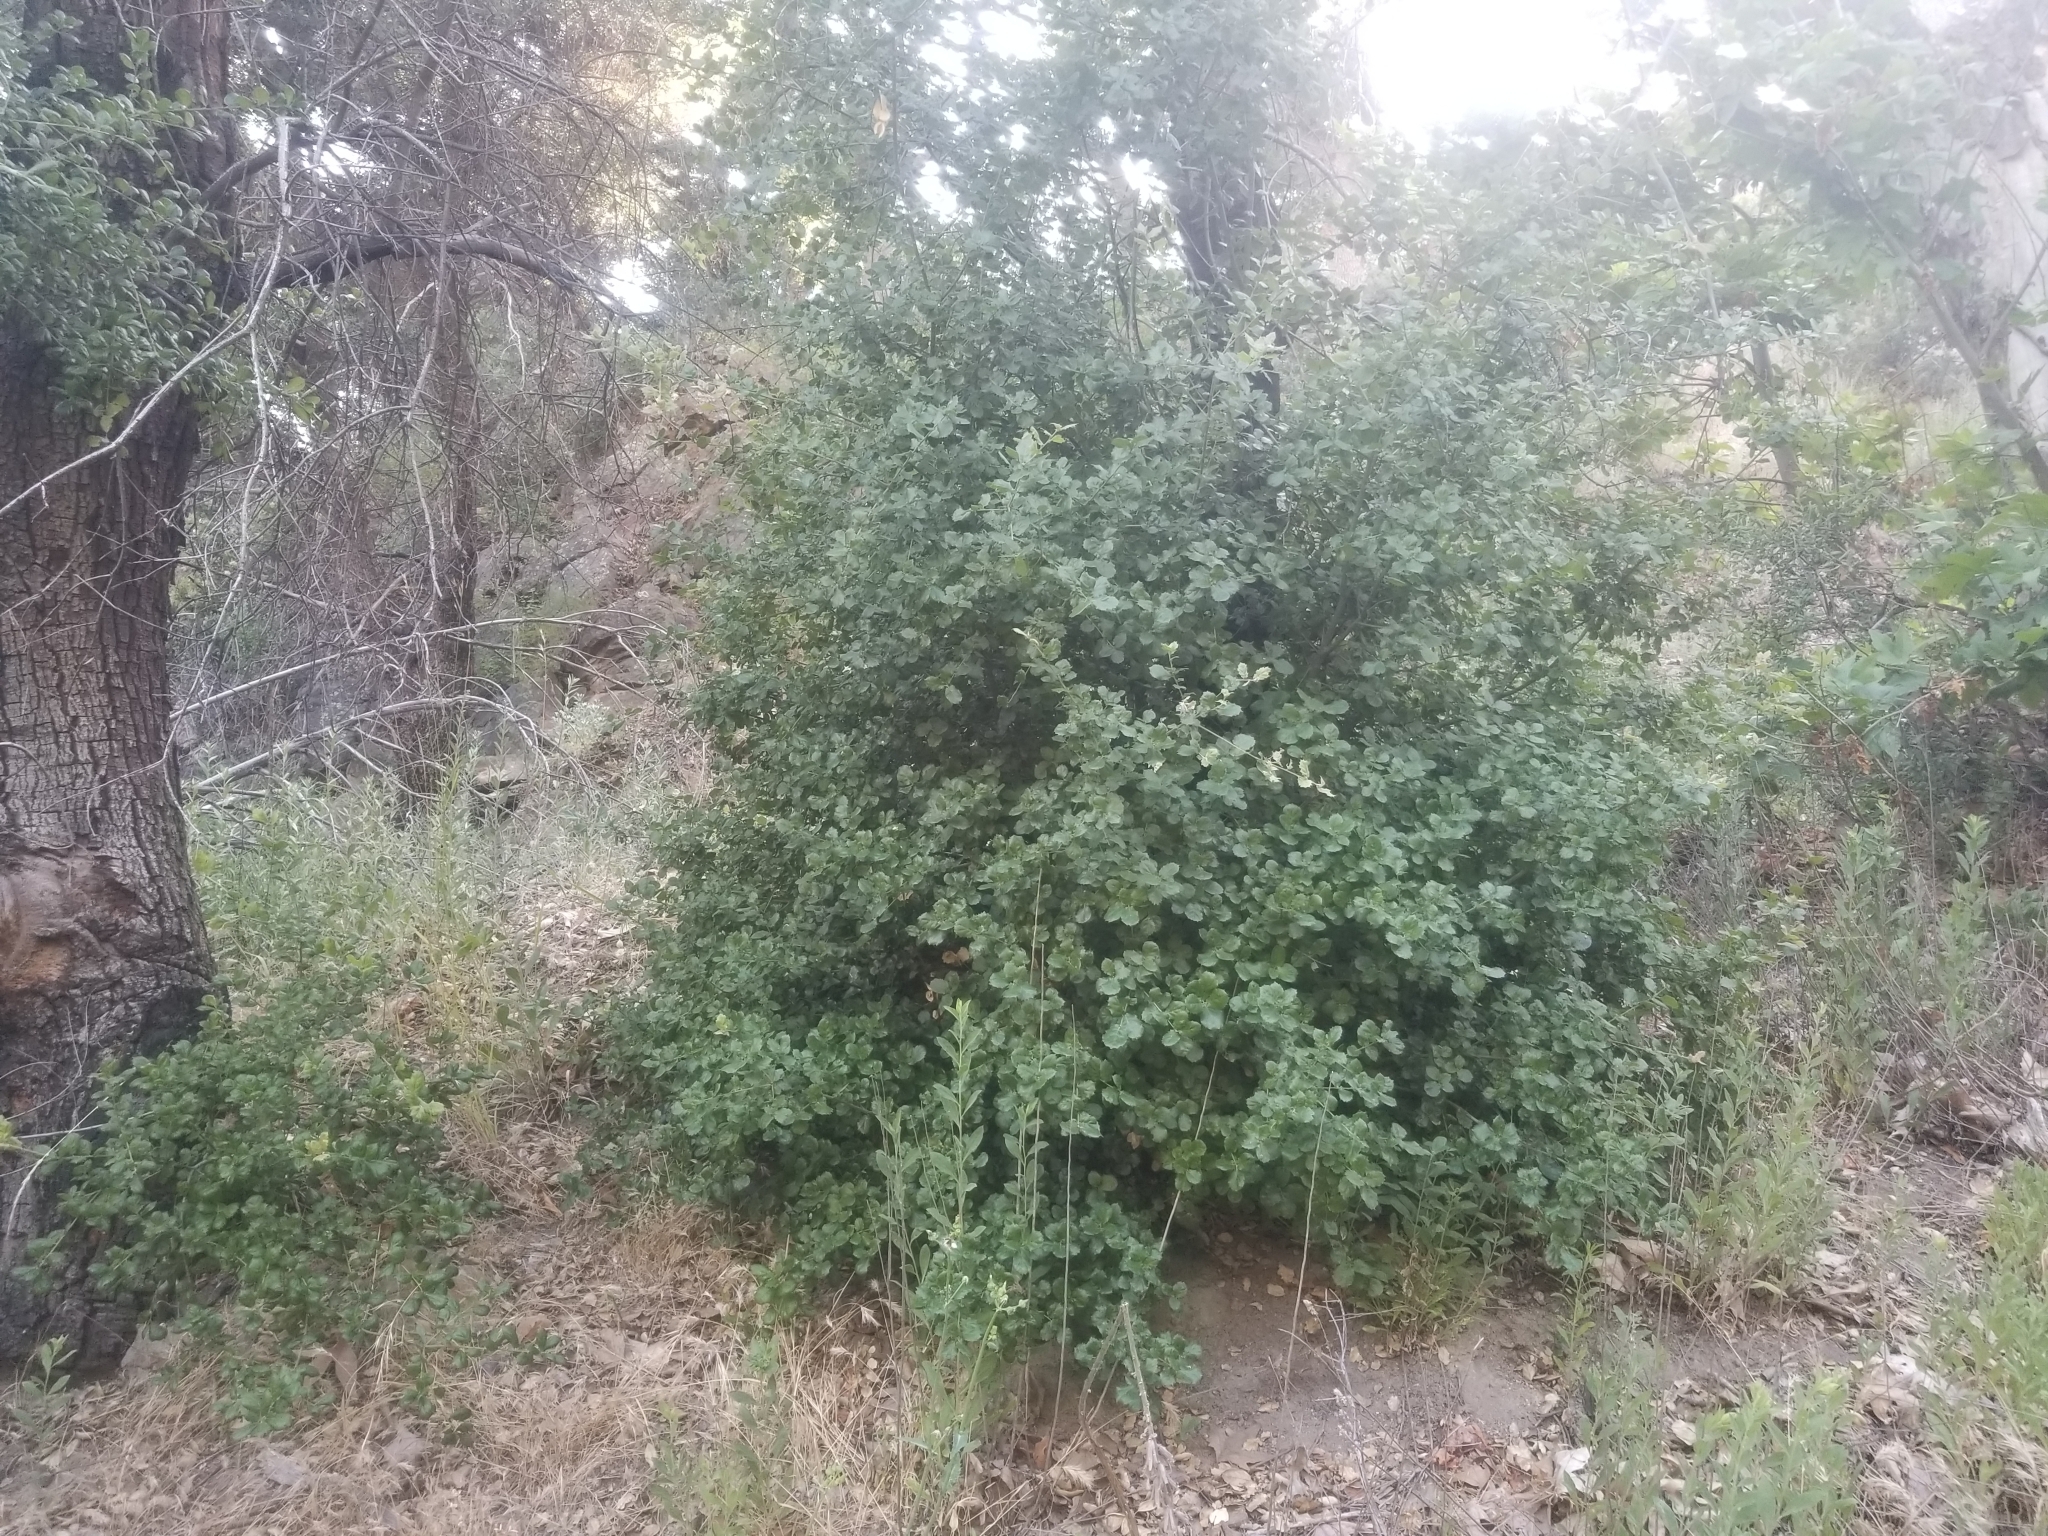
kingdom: Plantae
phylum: Tracheophyta
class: Magnoliopsida
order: Fagales
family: Fagaceae
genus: Quercus
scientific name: Quercus agrifolia
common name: California live oak
